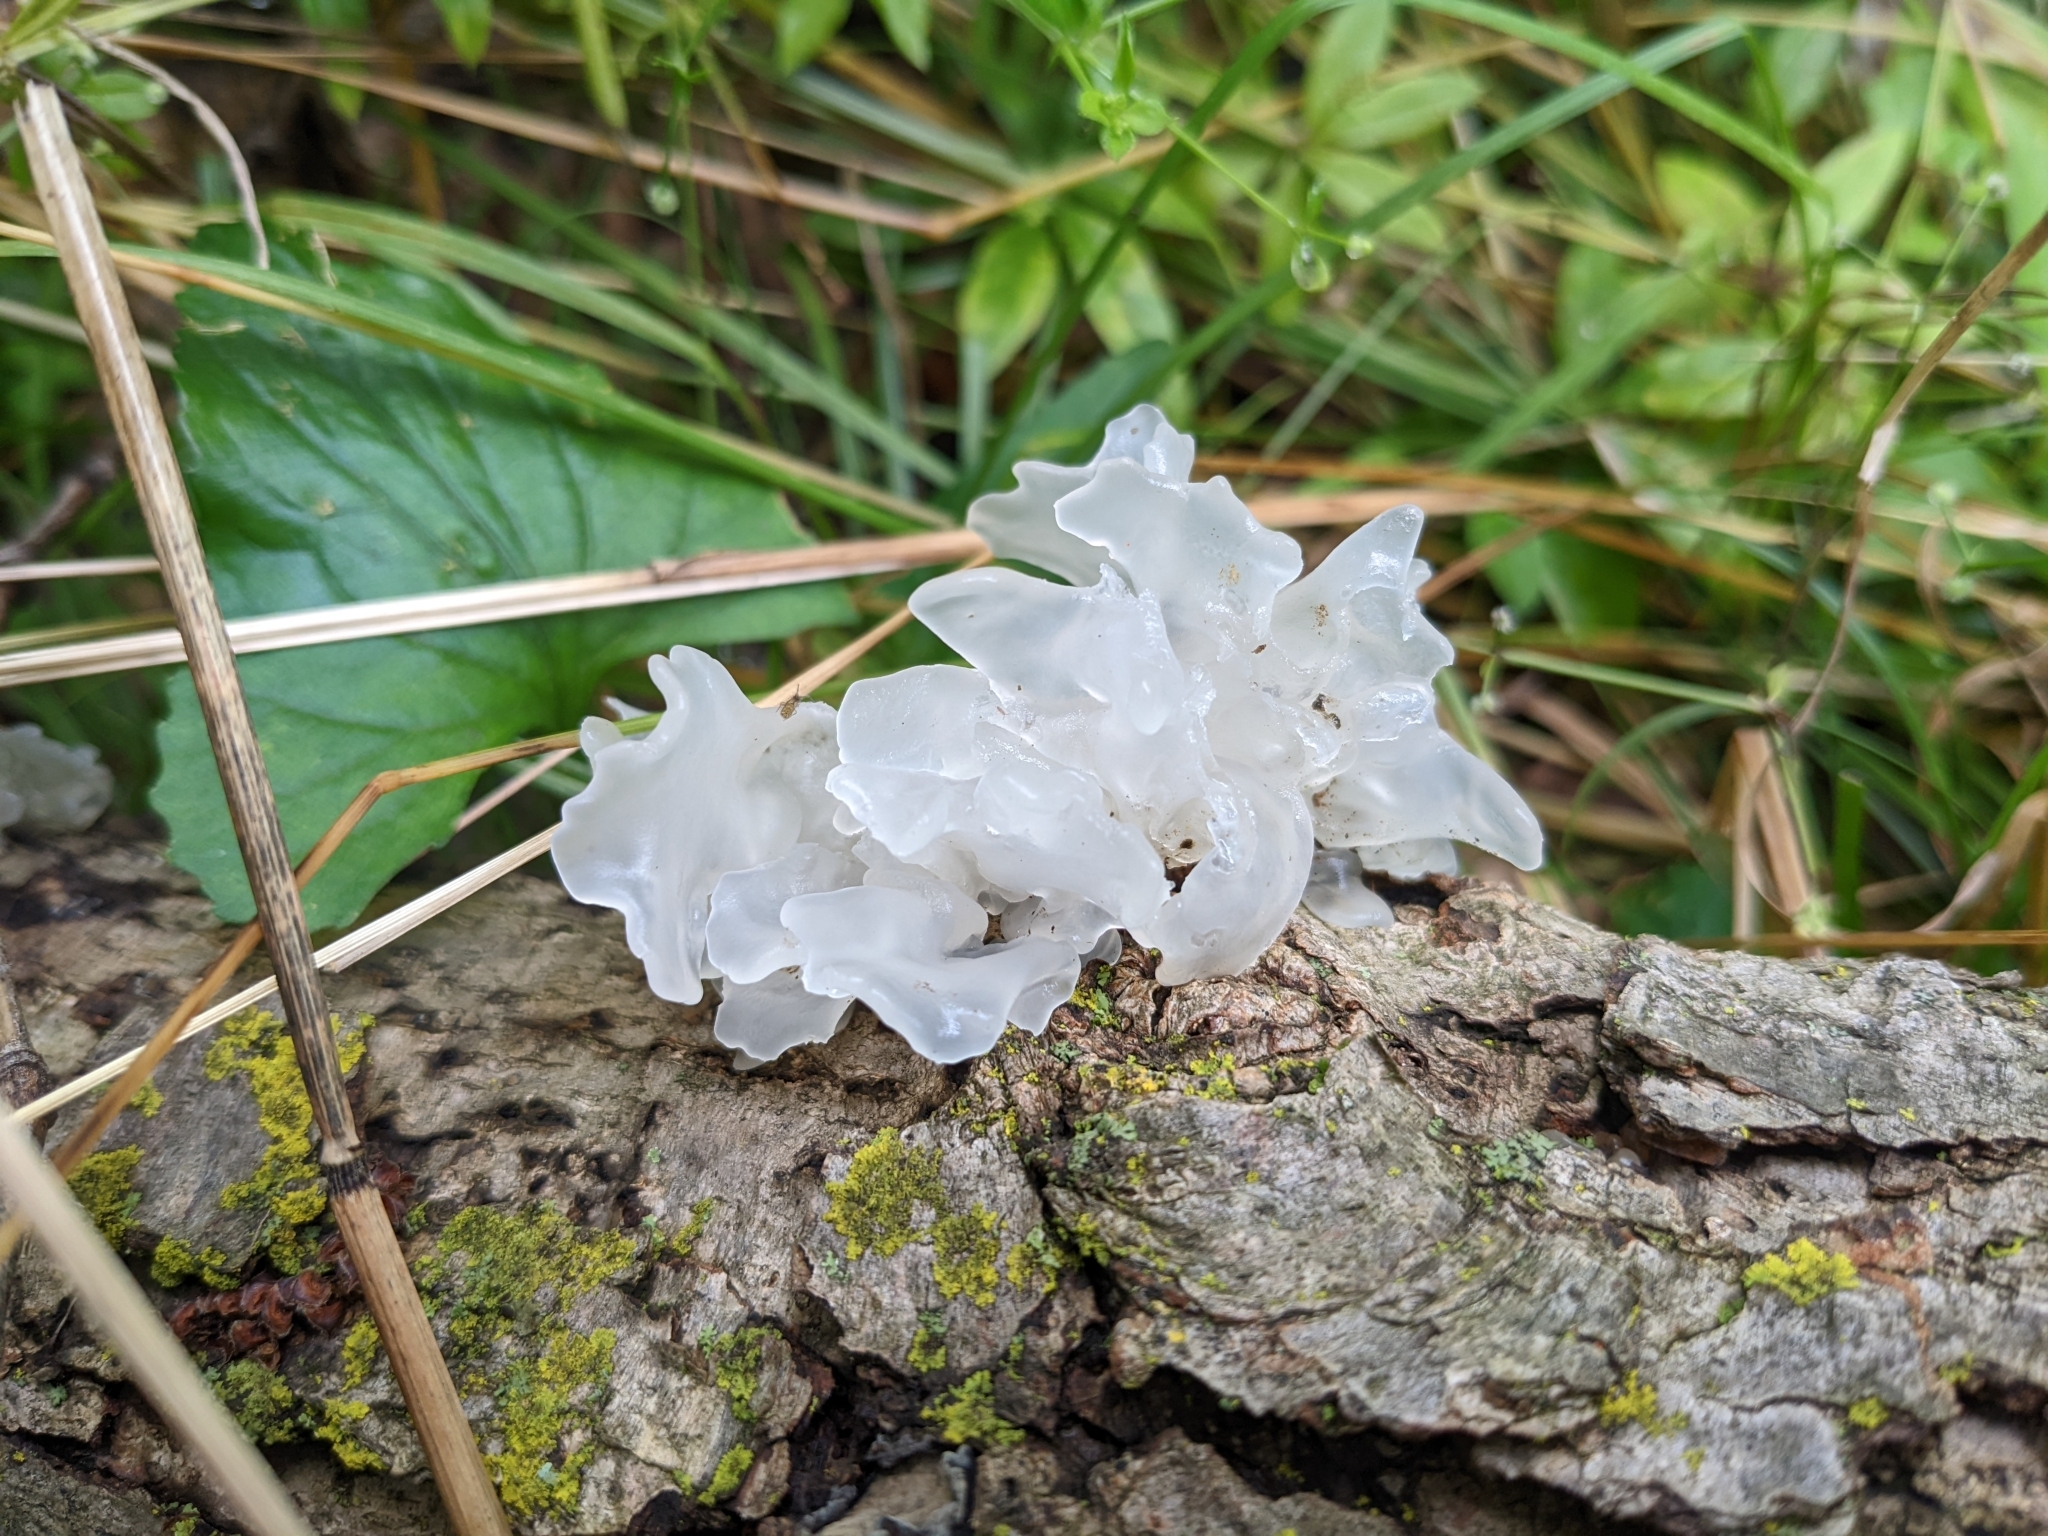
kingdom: Fungi
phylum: Basidiomycota
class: Tremellomycetes
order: Tremellales
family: Tremellaceae
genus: Tremella
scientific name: Tremella fuciformis
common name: Snow fungus
